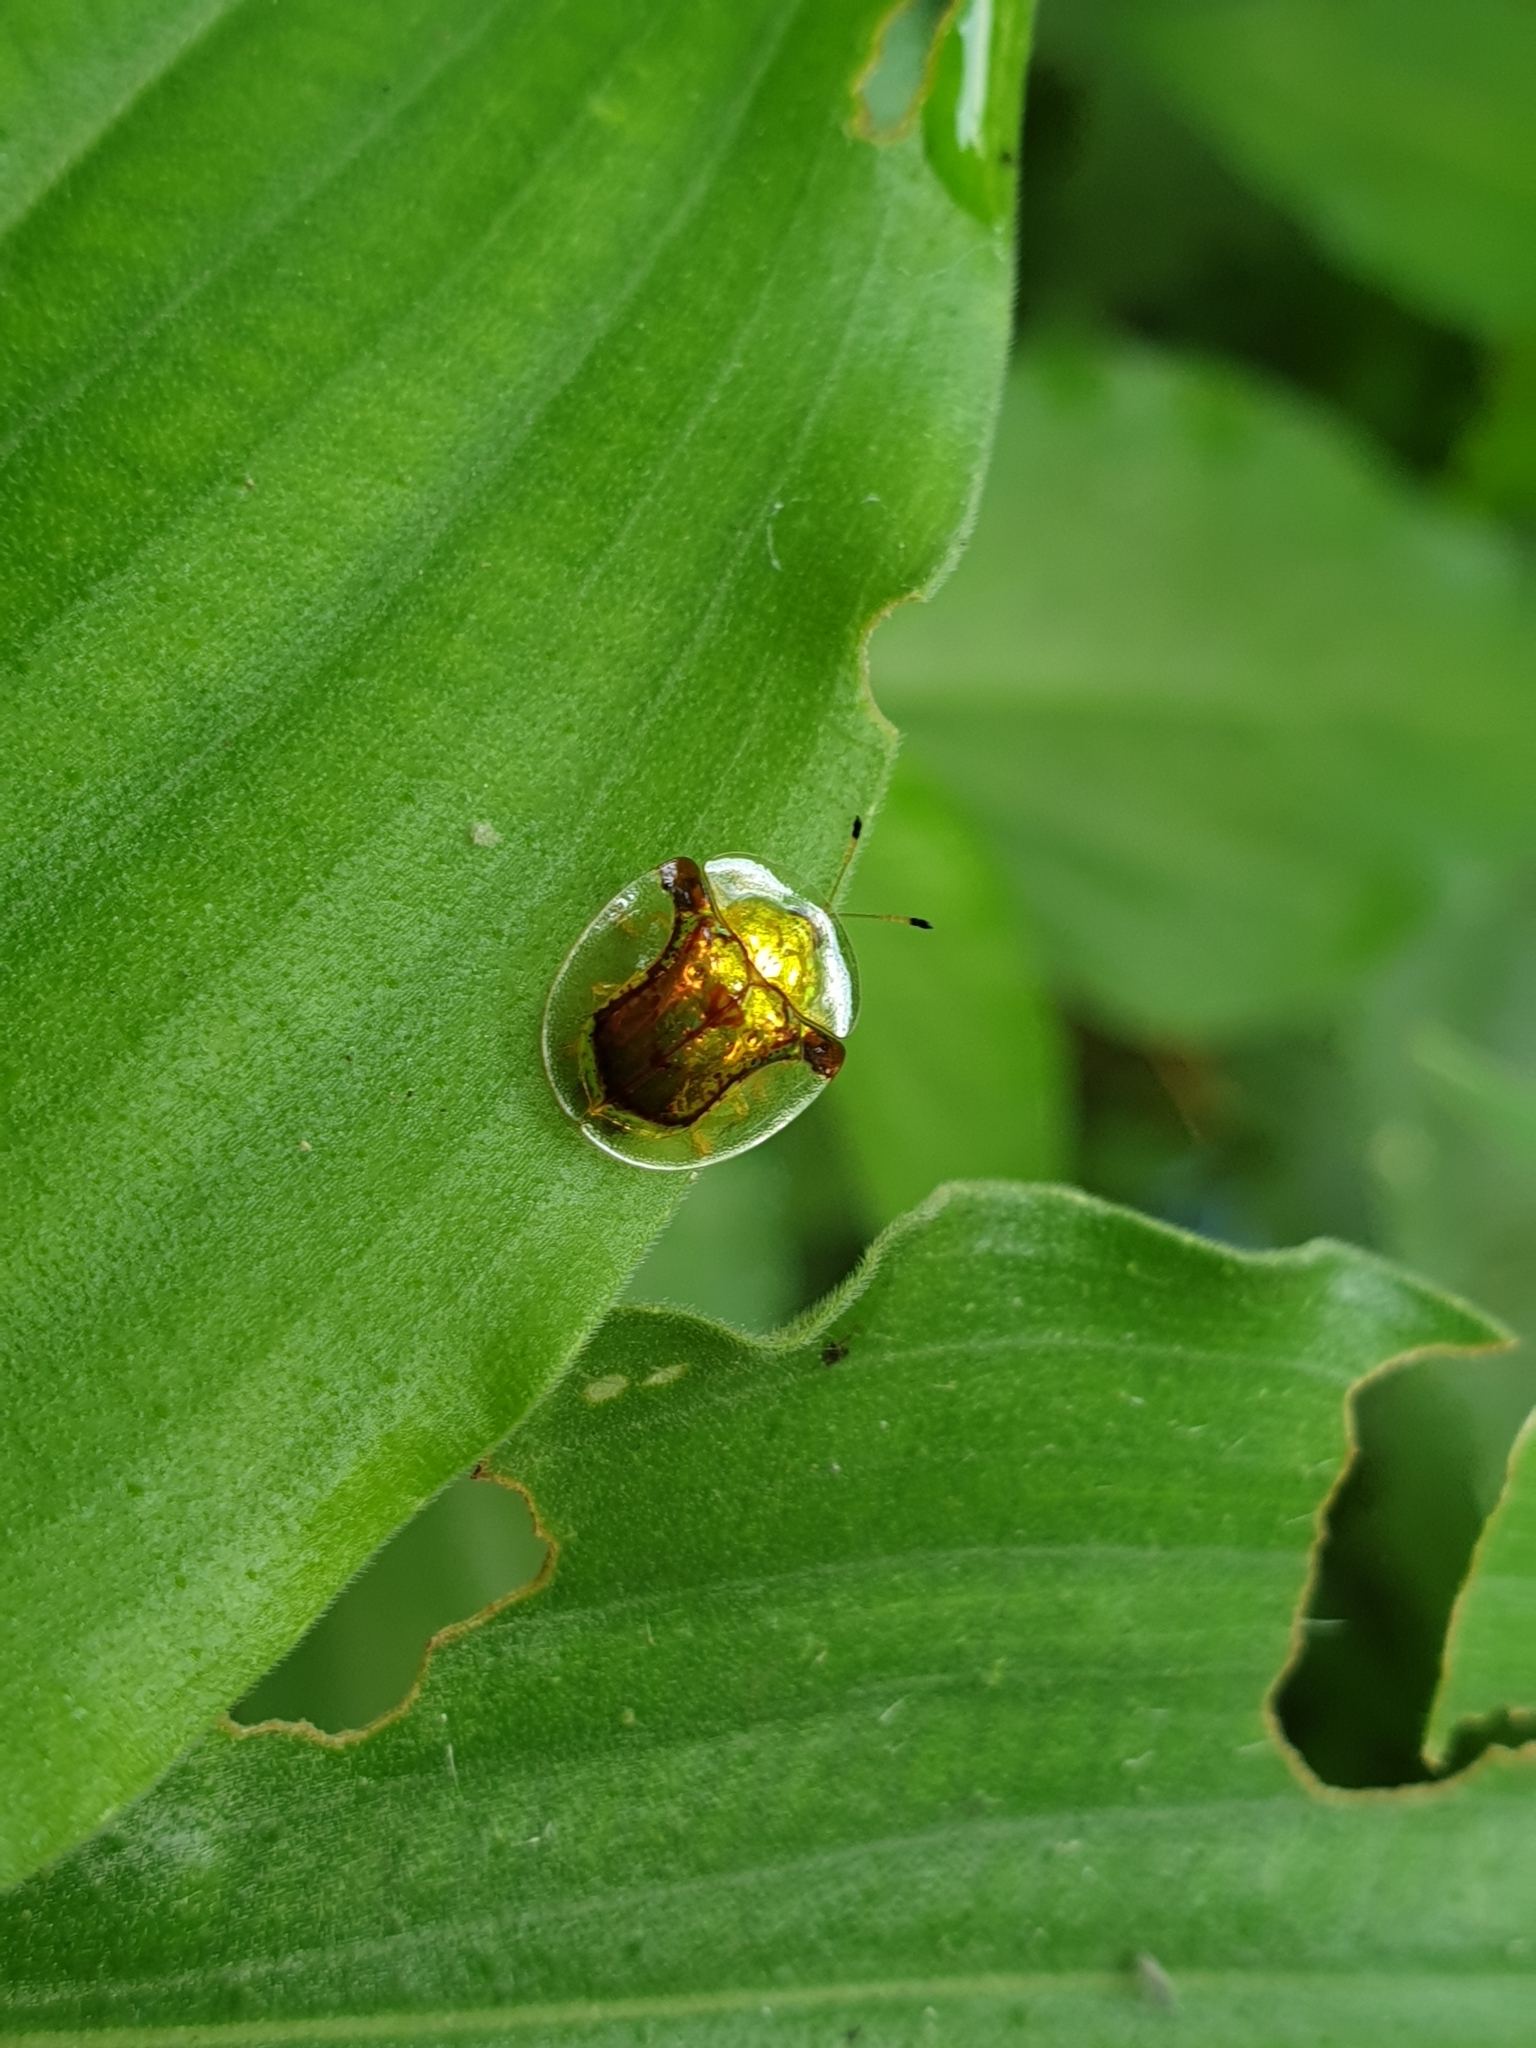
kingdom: Animalia
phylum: Arthropoda
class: Insecta
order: Coleoptera
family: Chrysomelidae
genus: Aspidimorpha
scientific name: Aspidimorpha furcata
